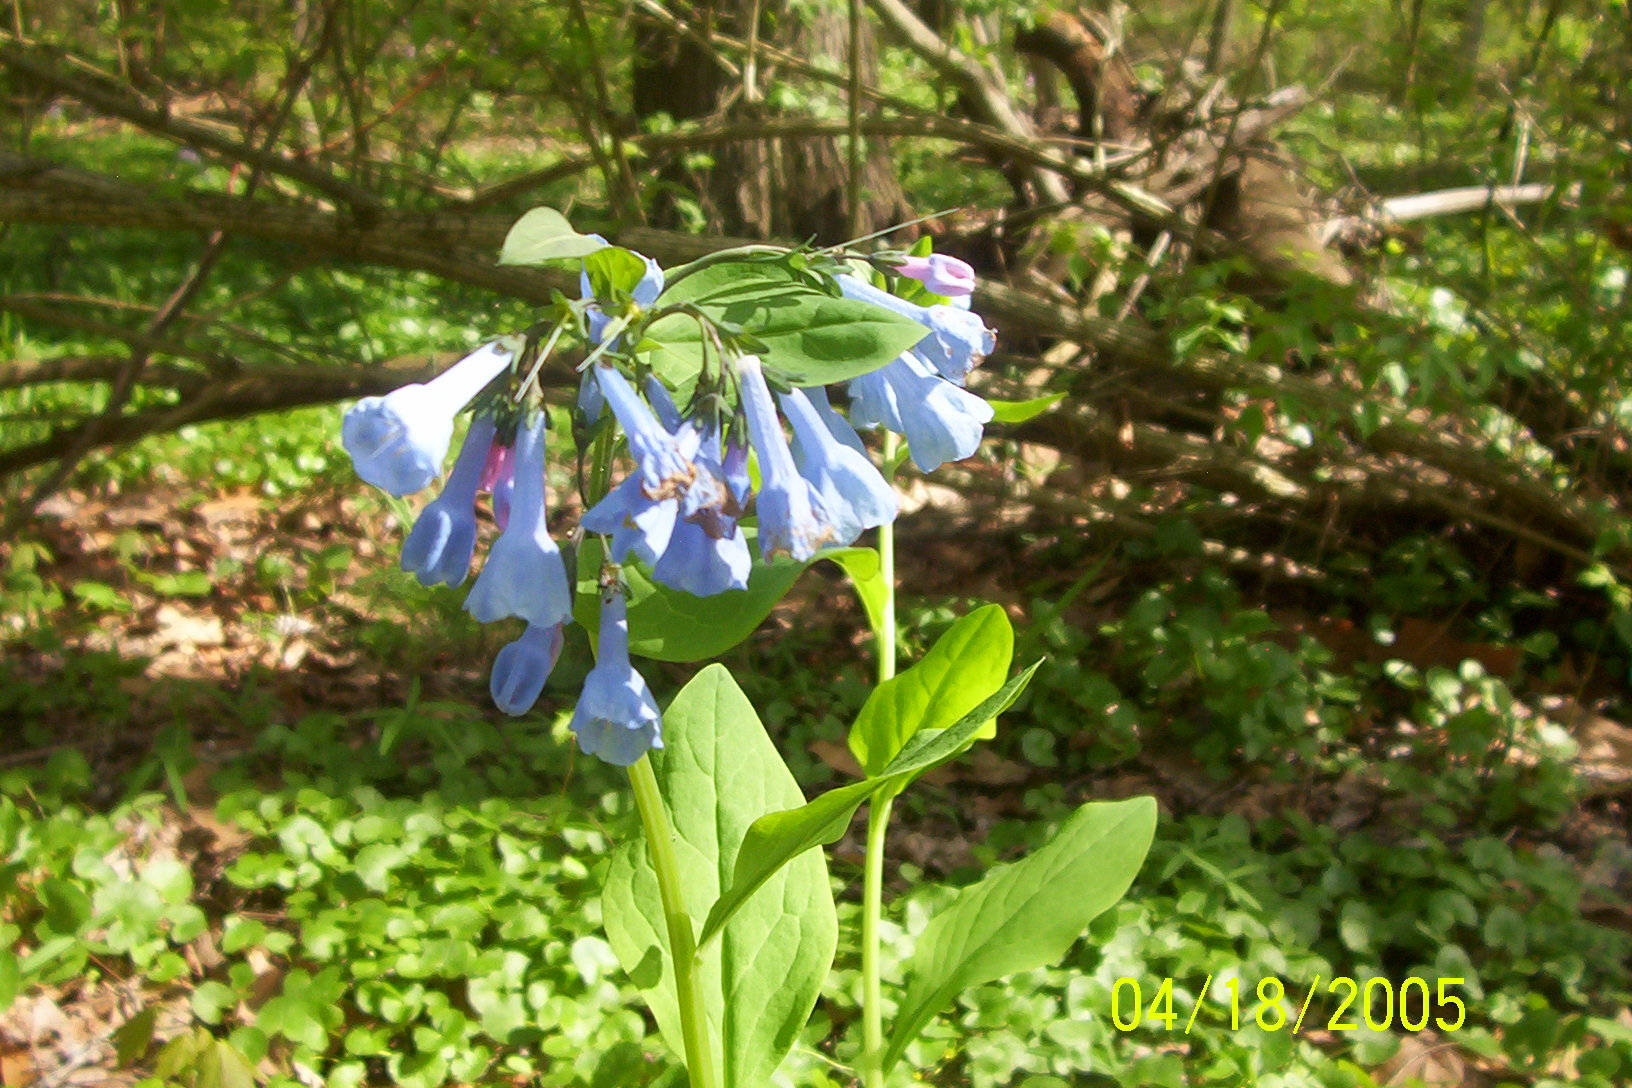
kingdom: Plantae
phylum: Tracheophyta
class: Magnoliopsida
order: Boraginales
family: Boraginaceae
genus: Mertensia
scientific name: Mertensia virginica
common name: Virginia bluebells
